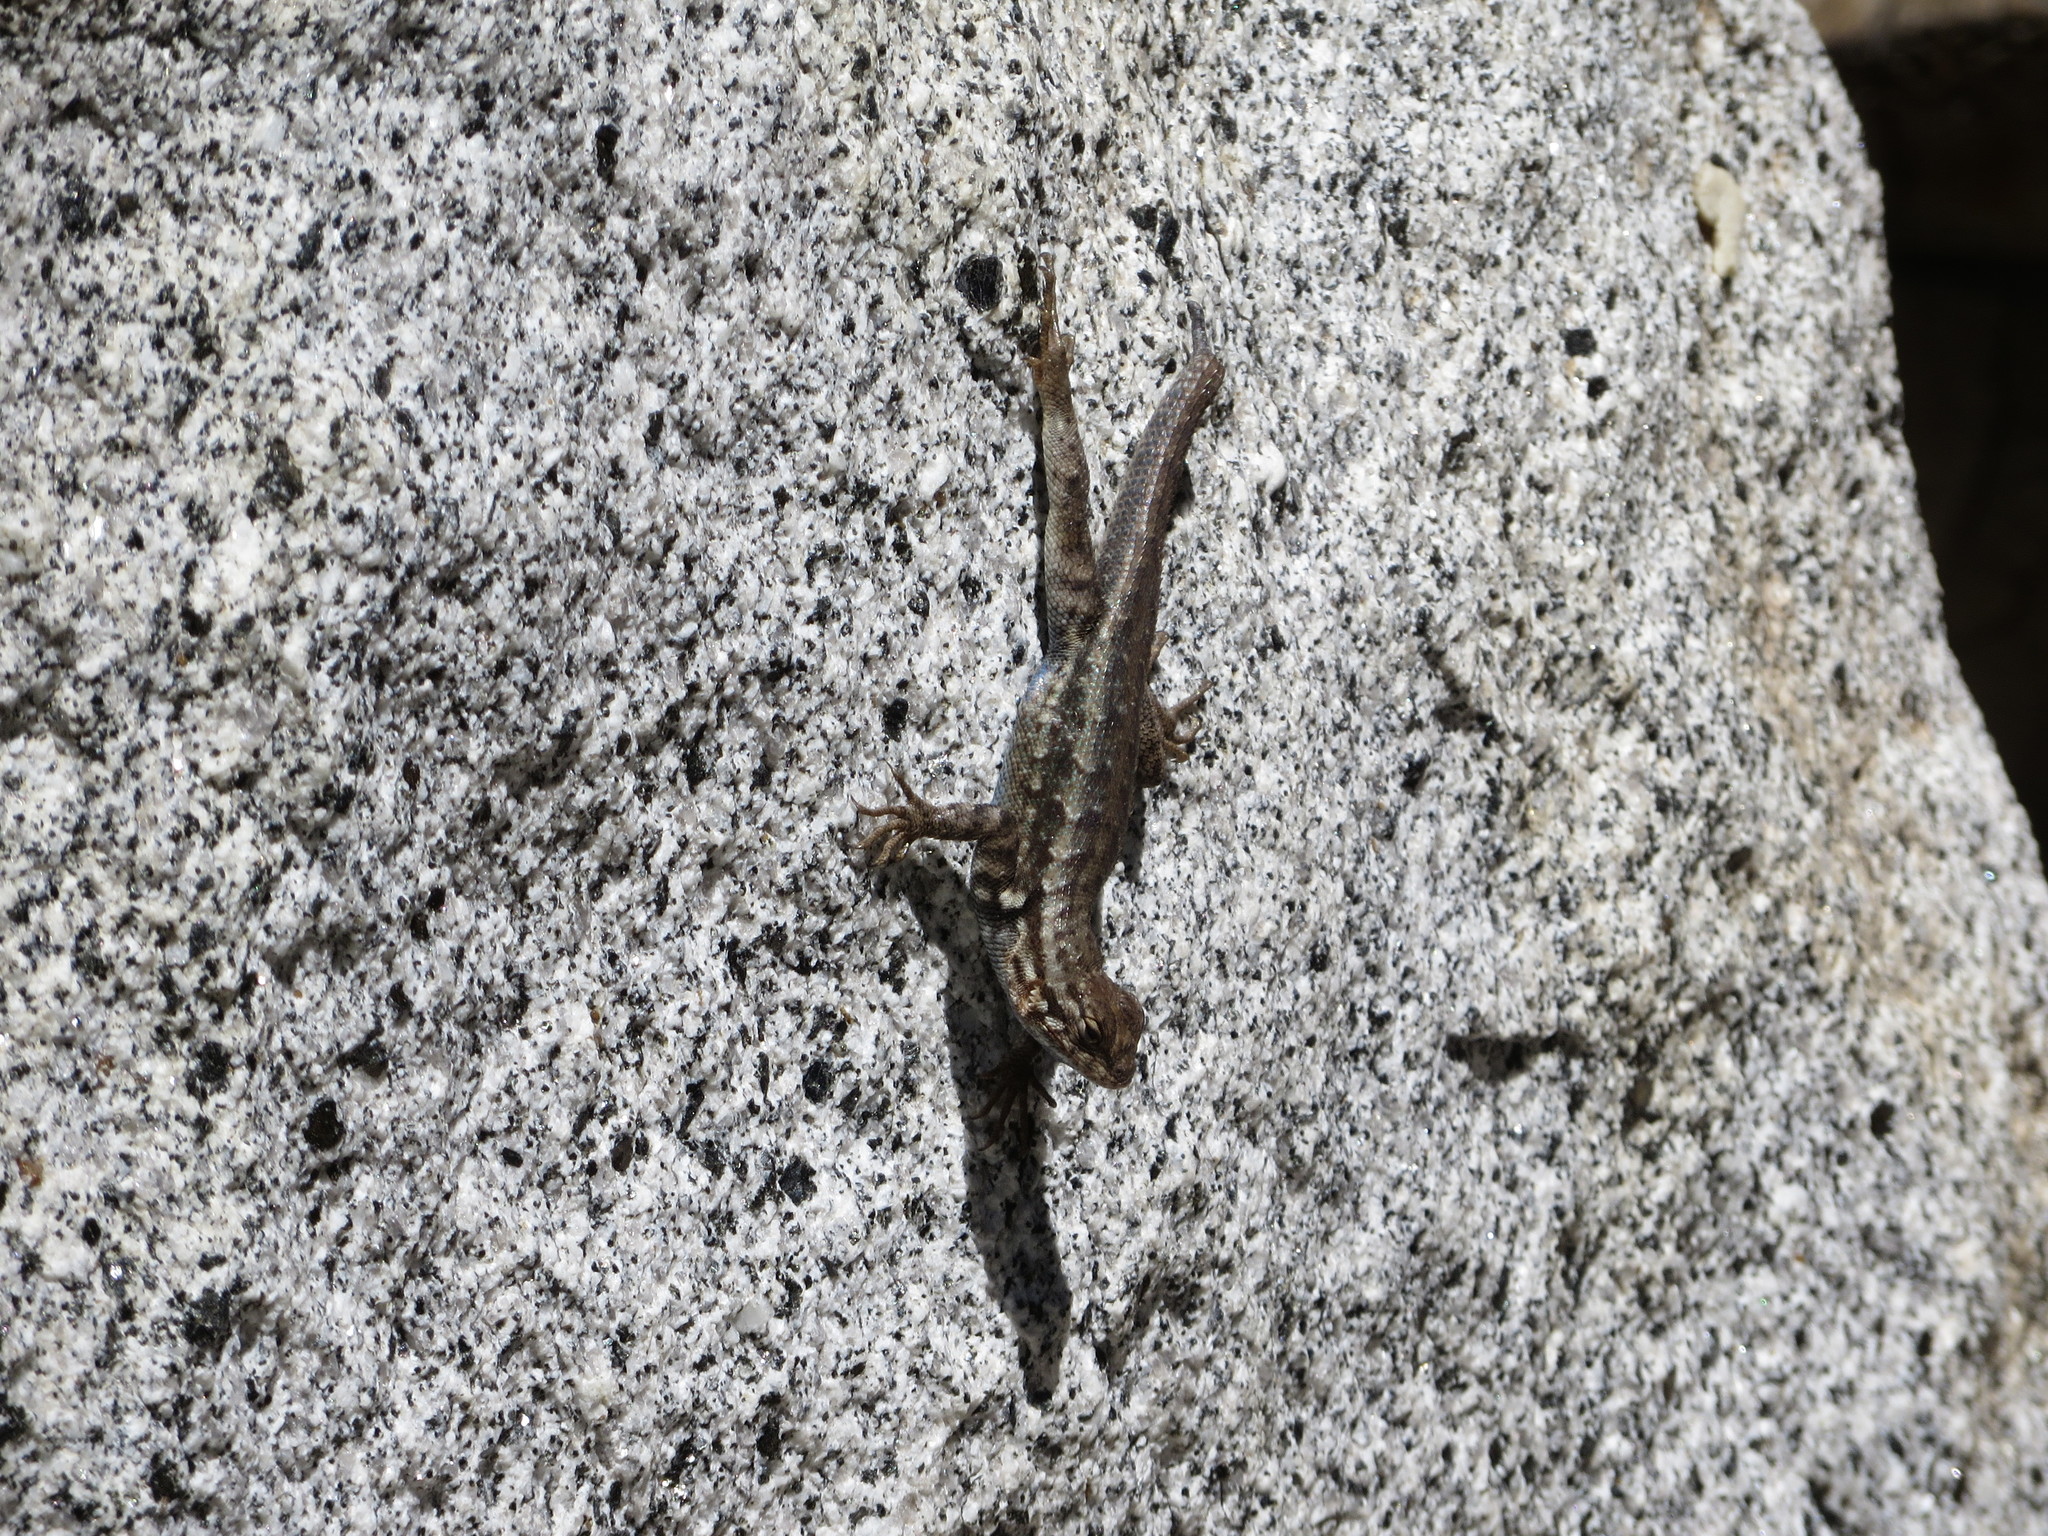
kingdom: Animalia
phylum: Chordata
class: Squamata
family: Phrynosomatidae
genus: Sceloporus
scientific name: Sceloporus graciosus
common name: Sagebrush lizard
